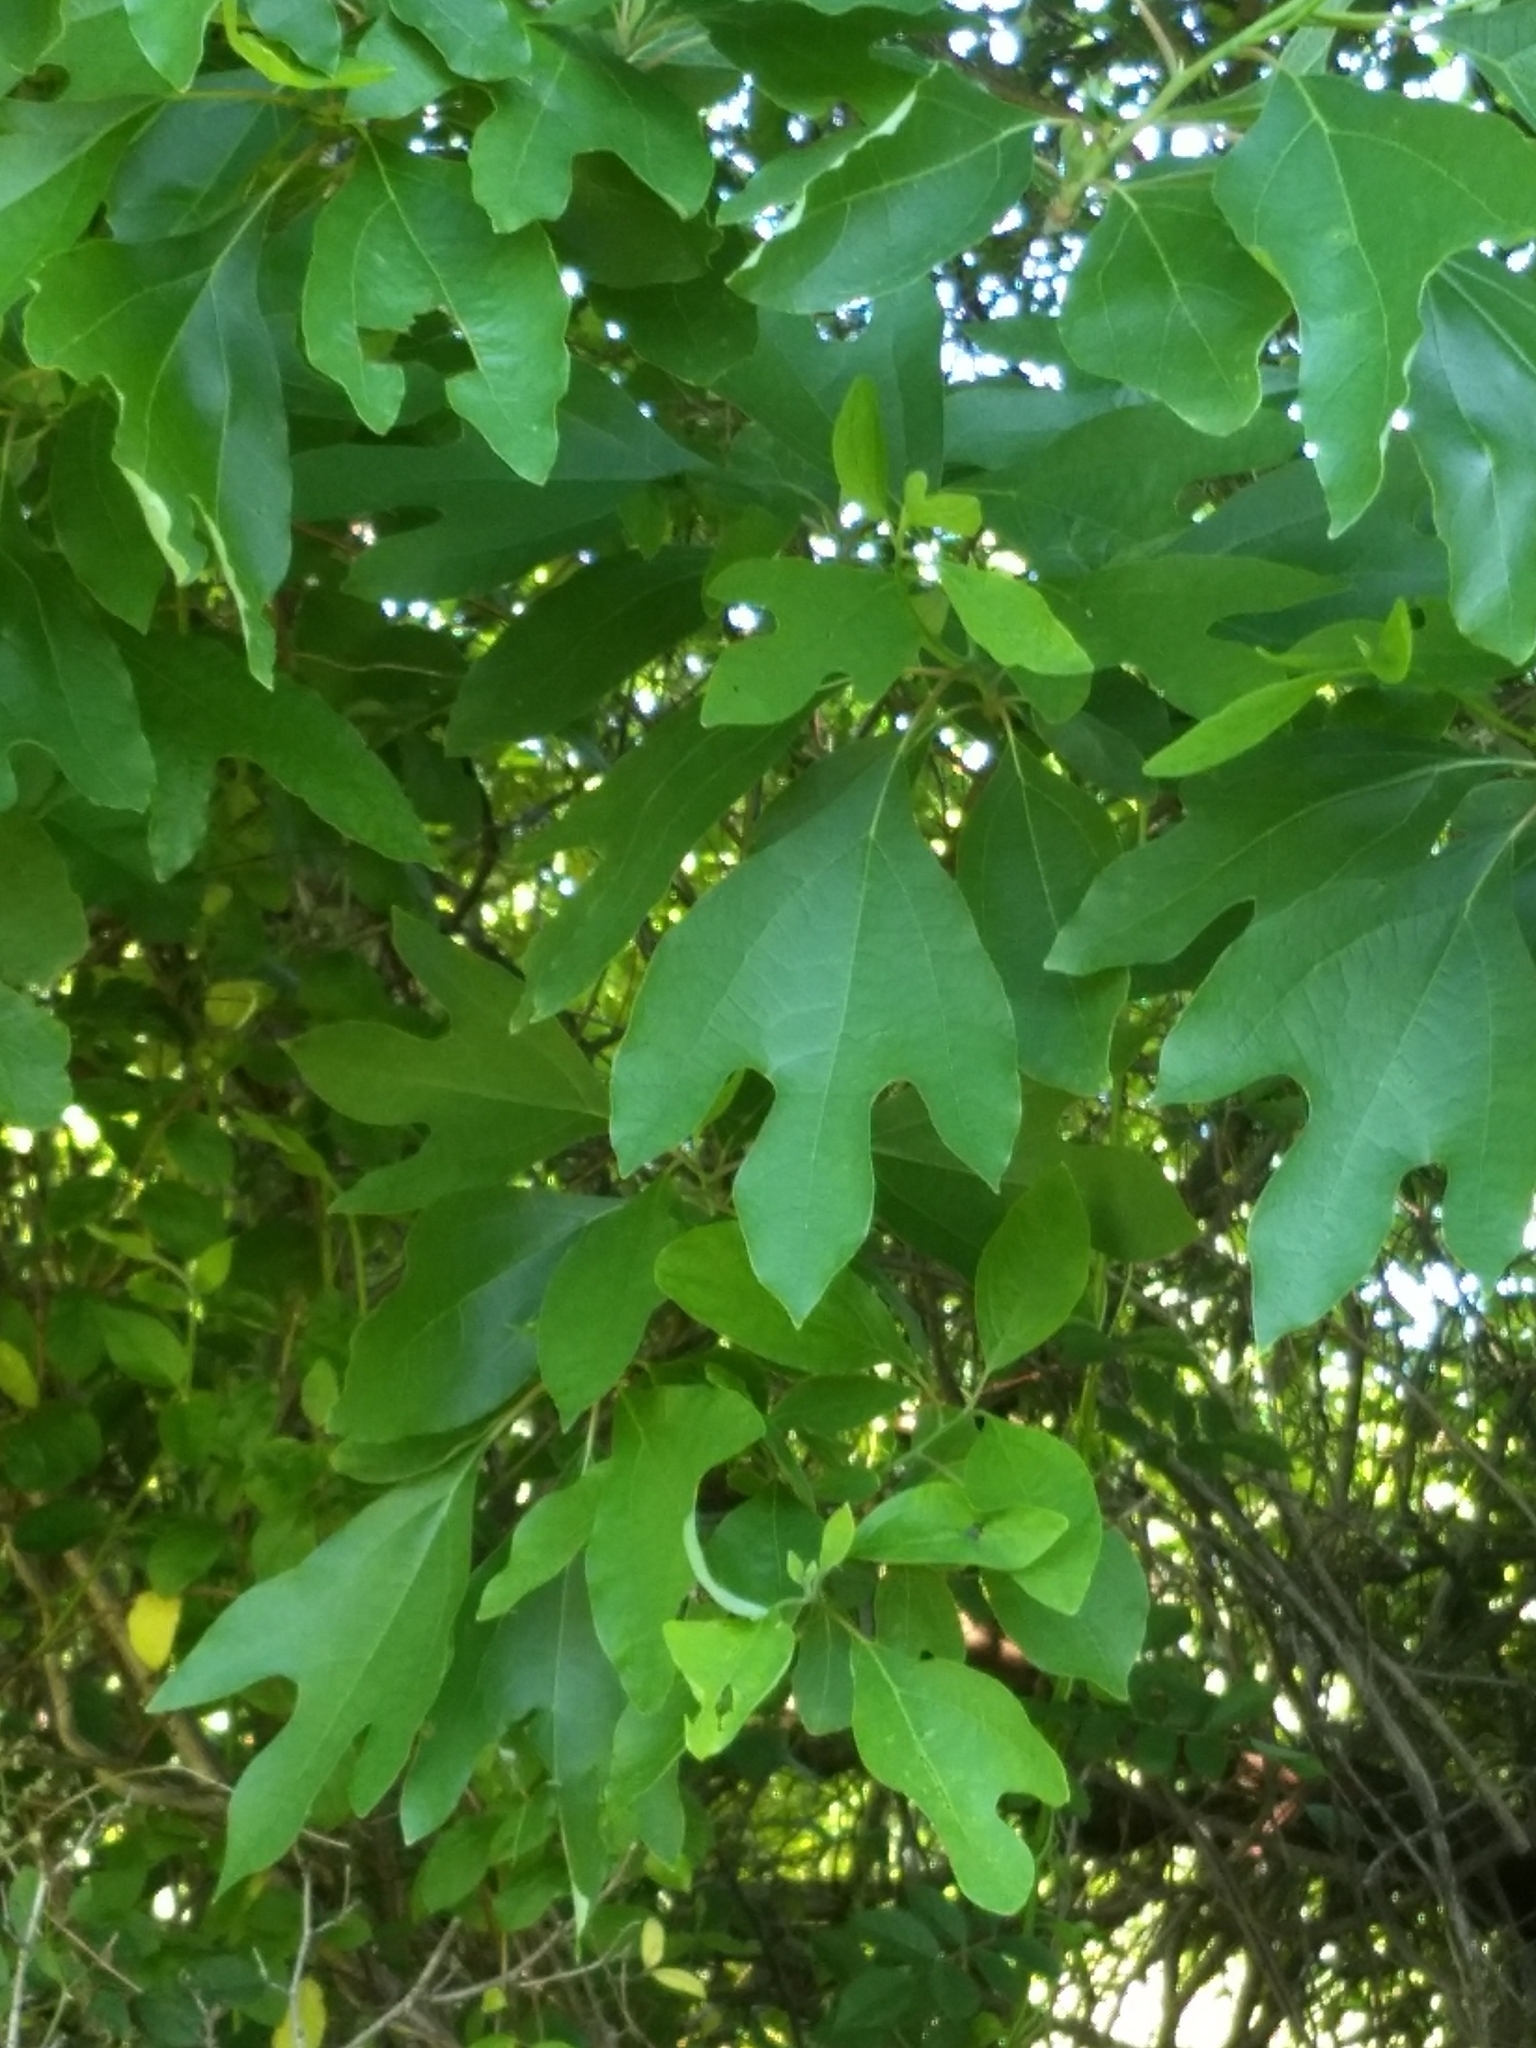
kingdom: Plantae
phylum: Tracheophyta
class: Magnoliopsida
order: Laurales
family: Lauraceae
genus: Sassafras
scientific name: Sassafras albidum
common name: Sassafras
